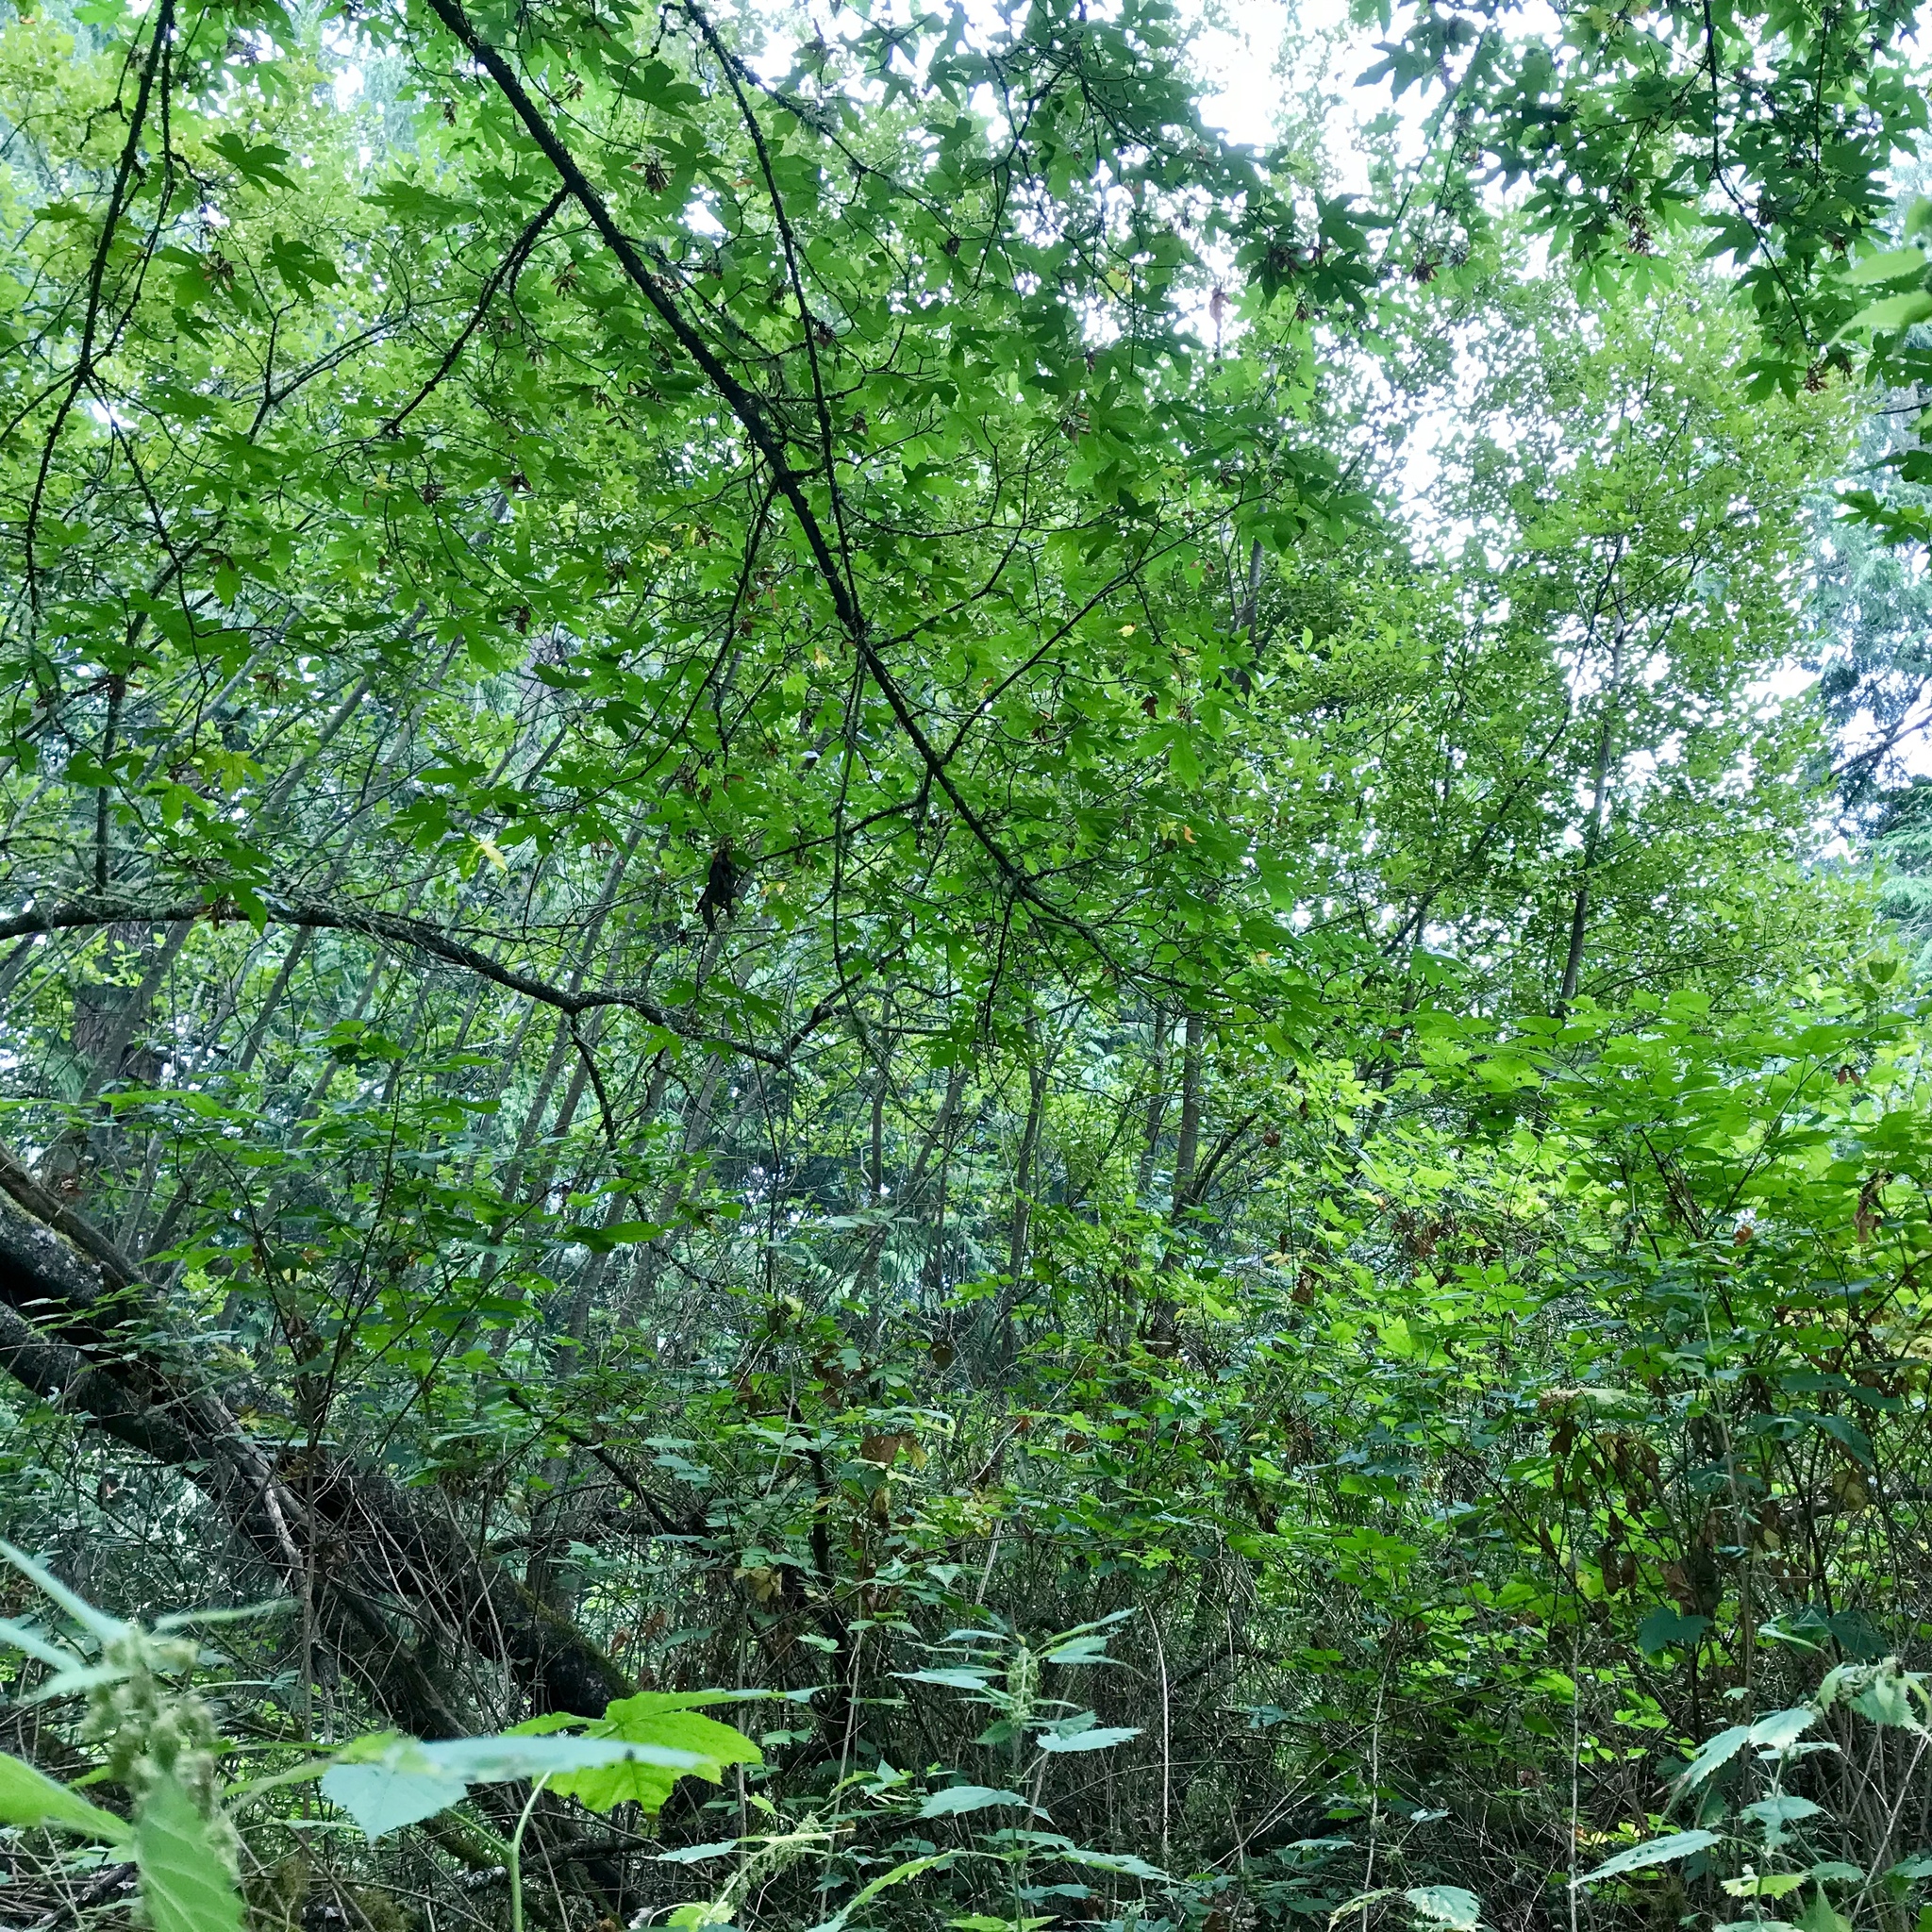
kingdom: Plantae
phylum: Tracheophyta
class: Magnoliopsida
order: Sapindales
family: Sapindaceae
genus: Acer
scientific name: Acer macrophyllum
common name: Oregon maple
